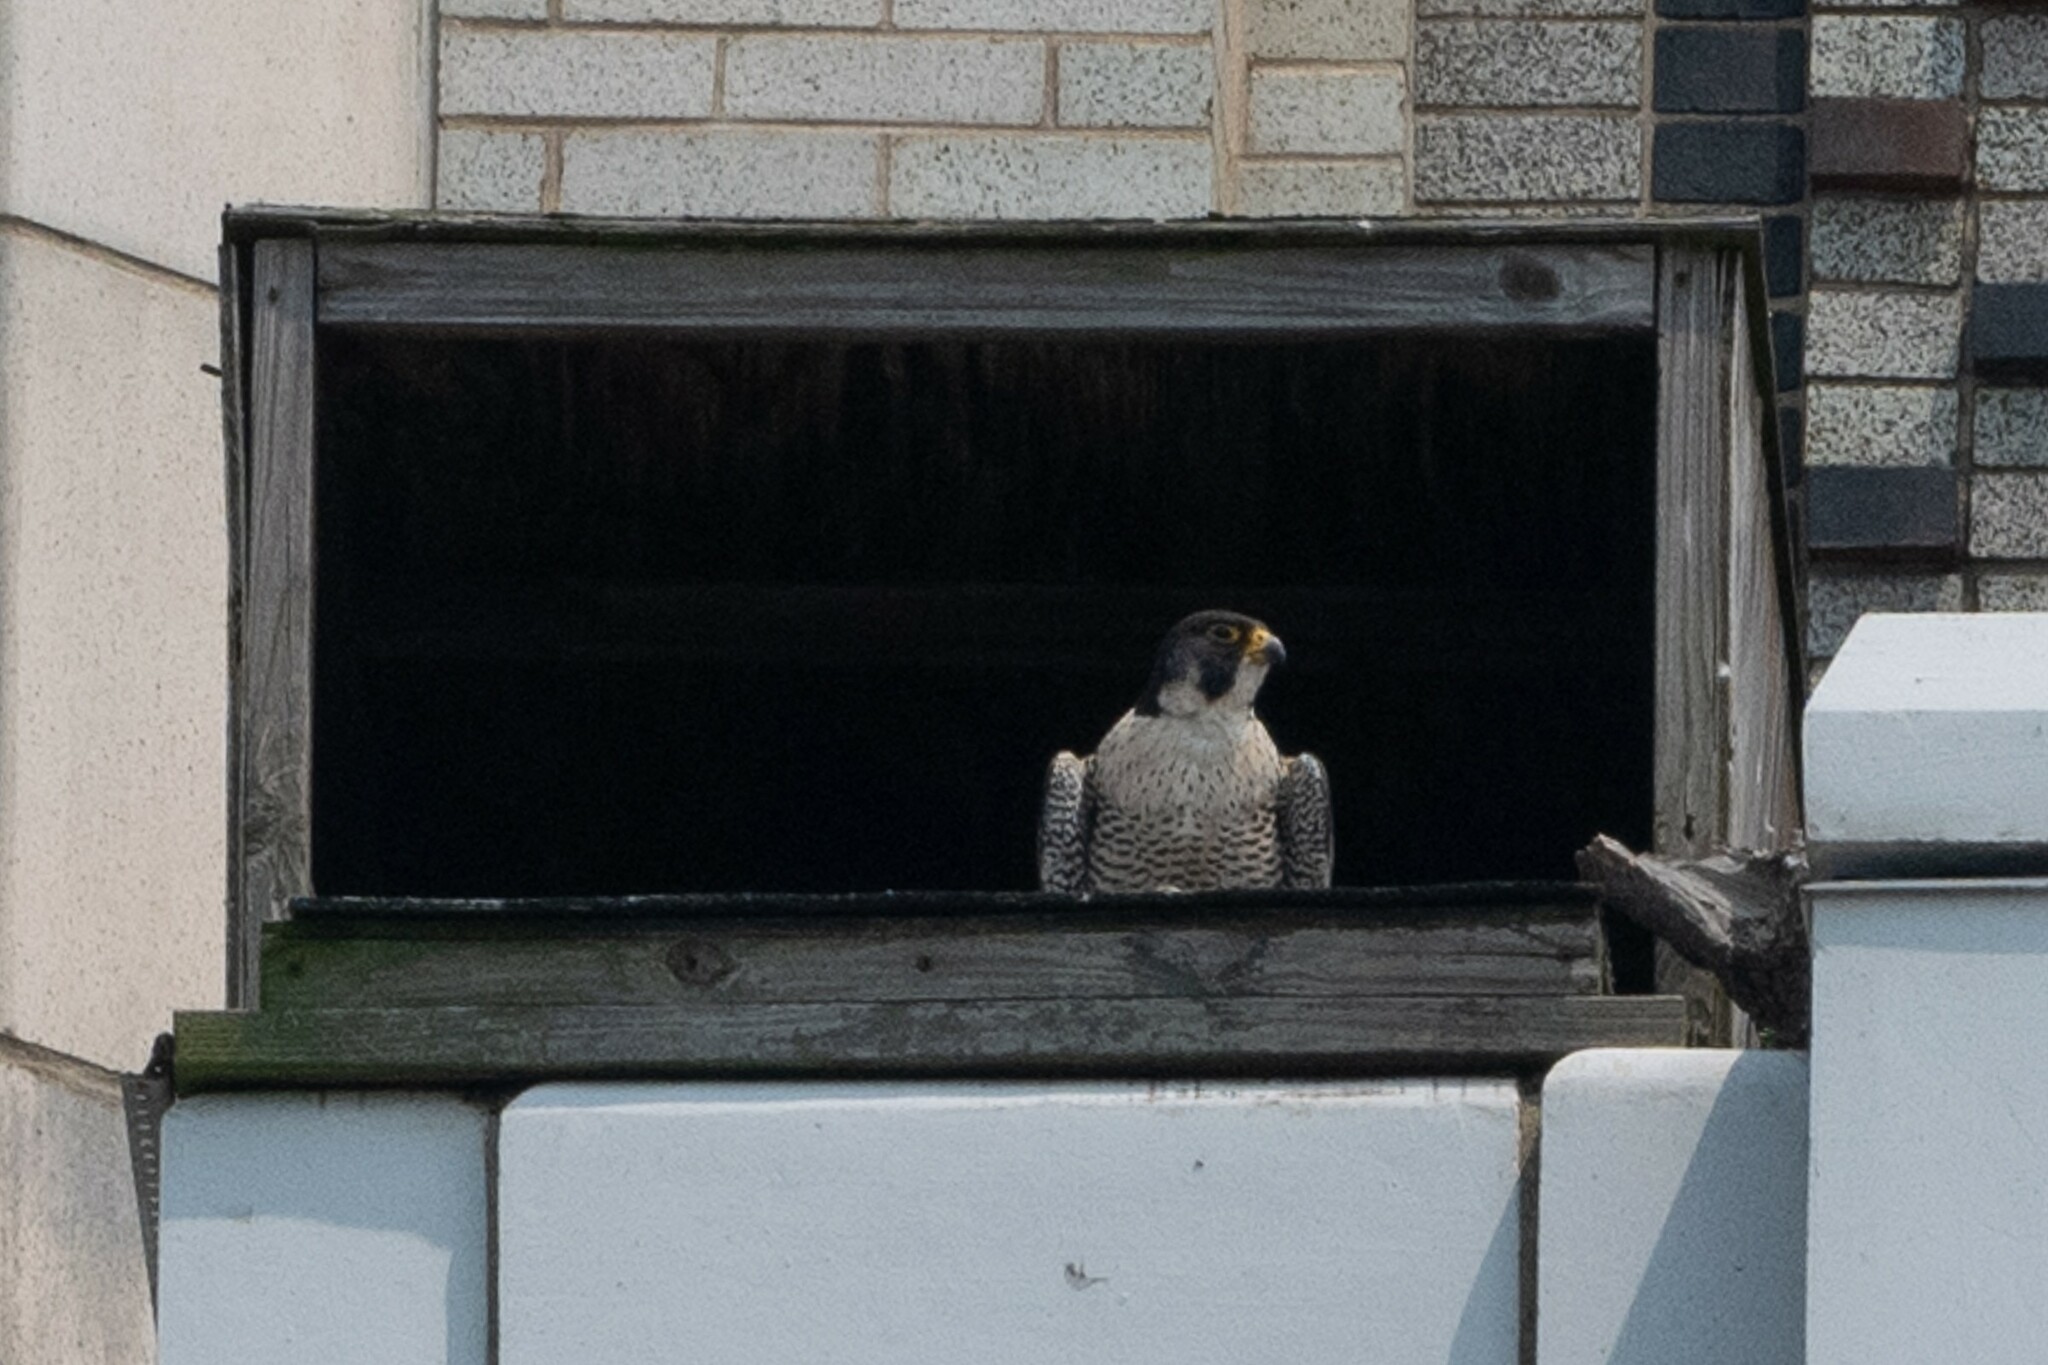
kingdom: Animalia
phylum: Chordata
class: Aves
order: Falconiformes
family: Falconidae
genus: Falco
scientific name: Falco peregrinus
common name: Peregrine falcon
